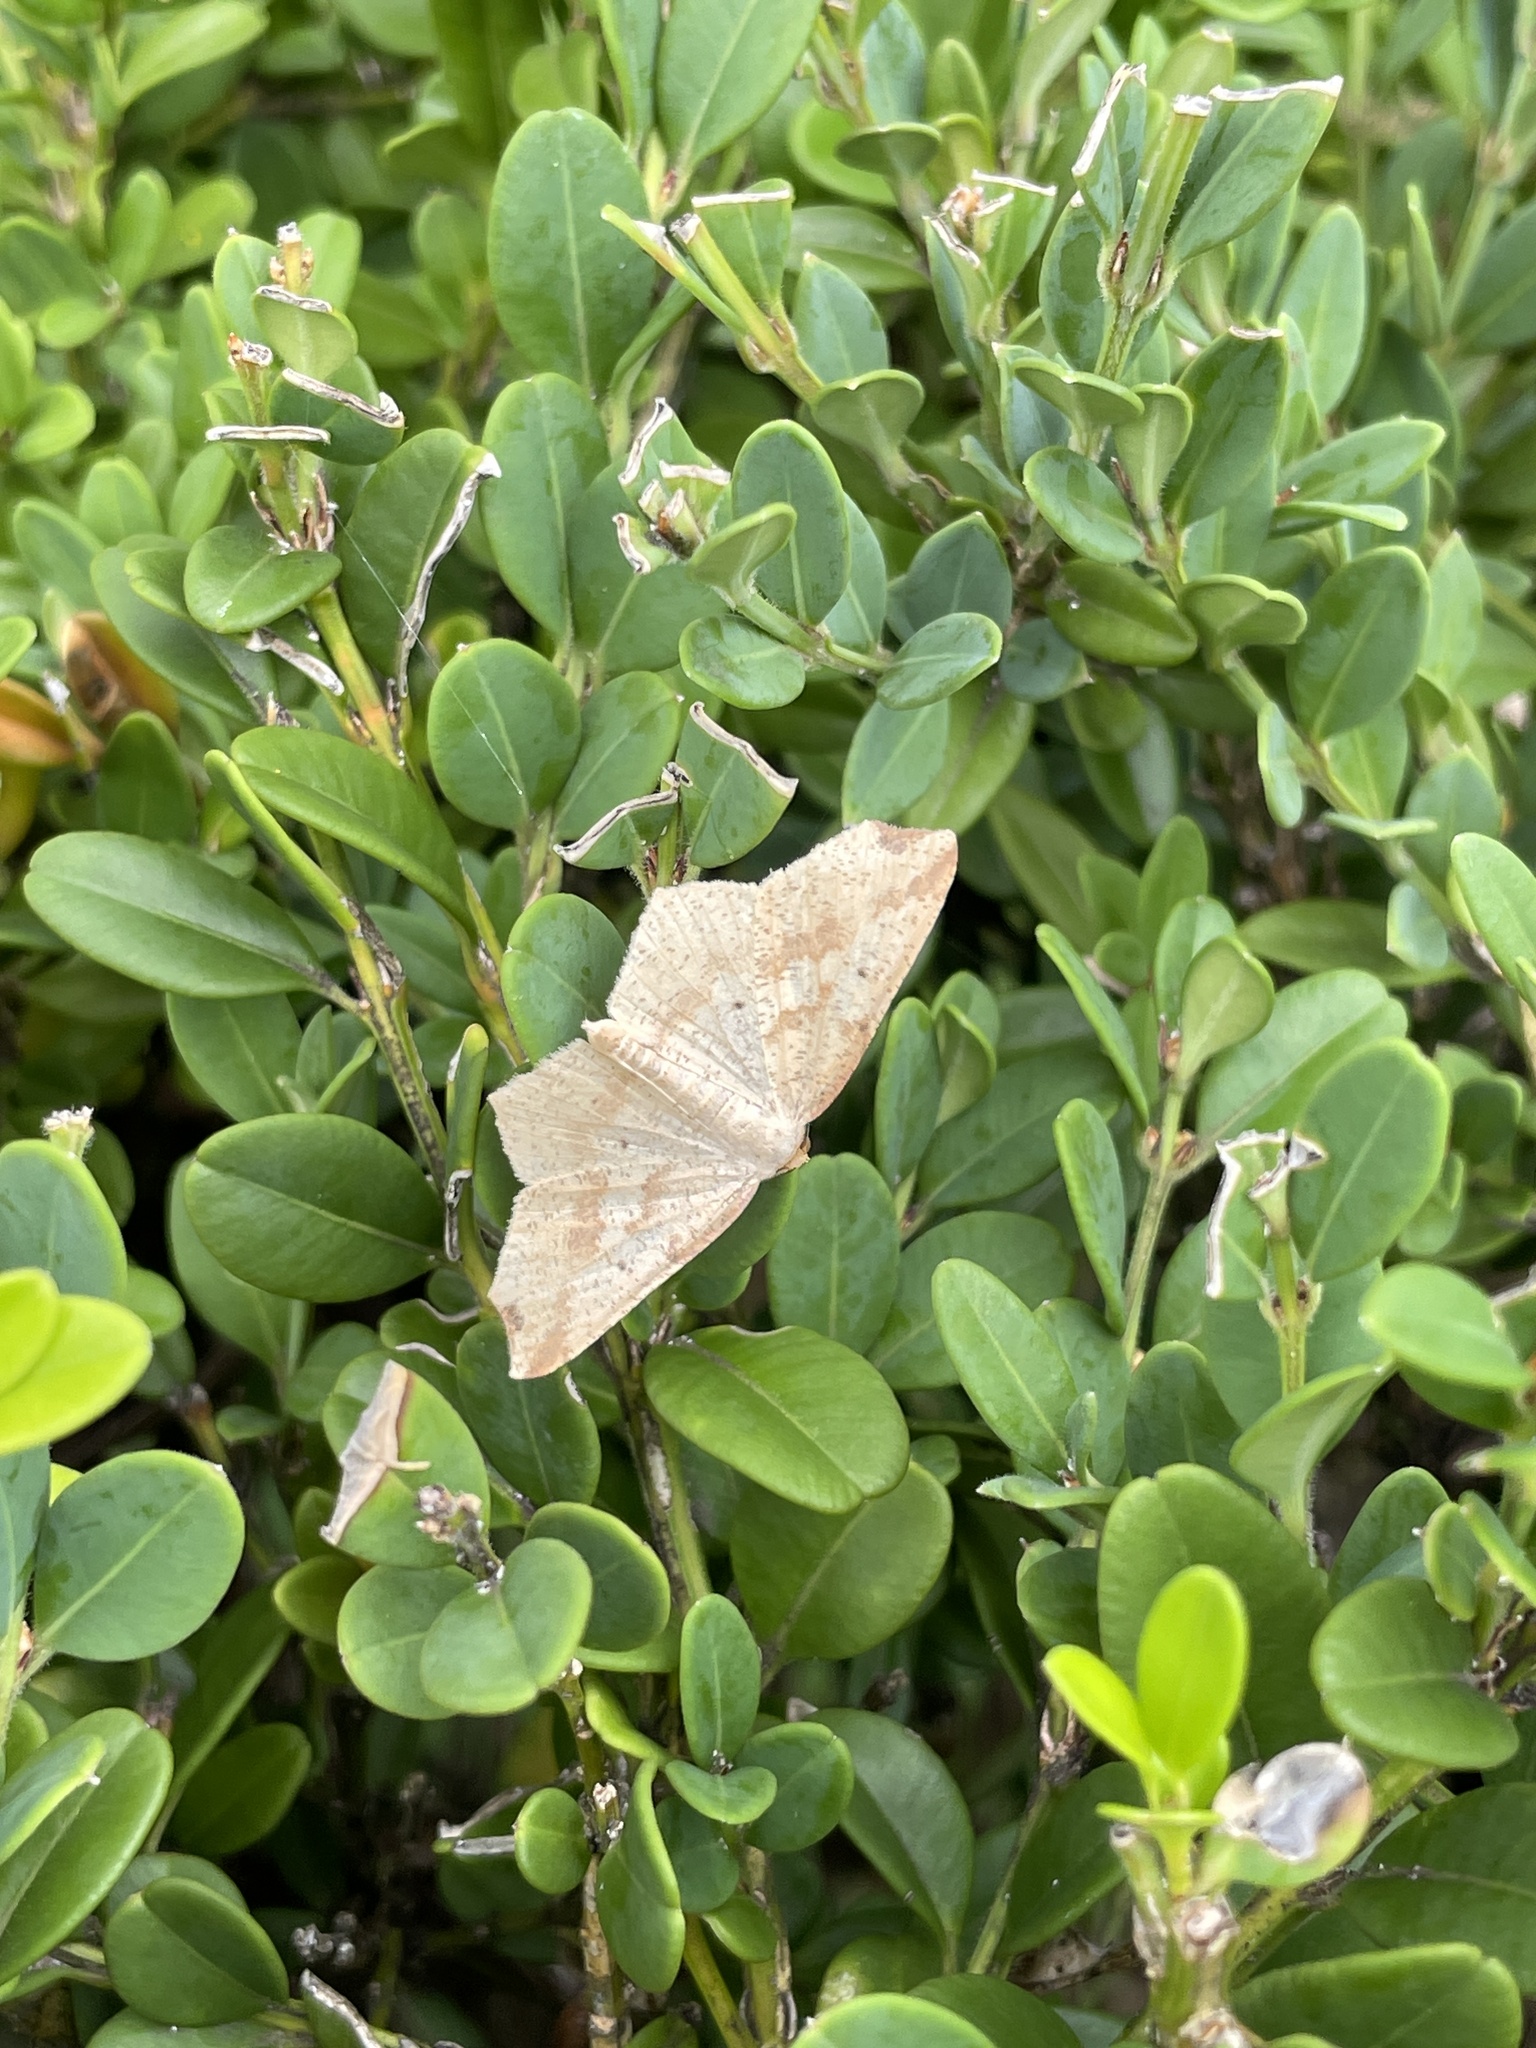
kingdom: Animalia
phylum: Arthropoda
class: Insecta
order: Lepidoptera
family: Geometridae
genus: Pareclipsis
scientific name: Pareclipsis gracilis
